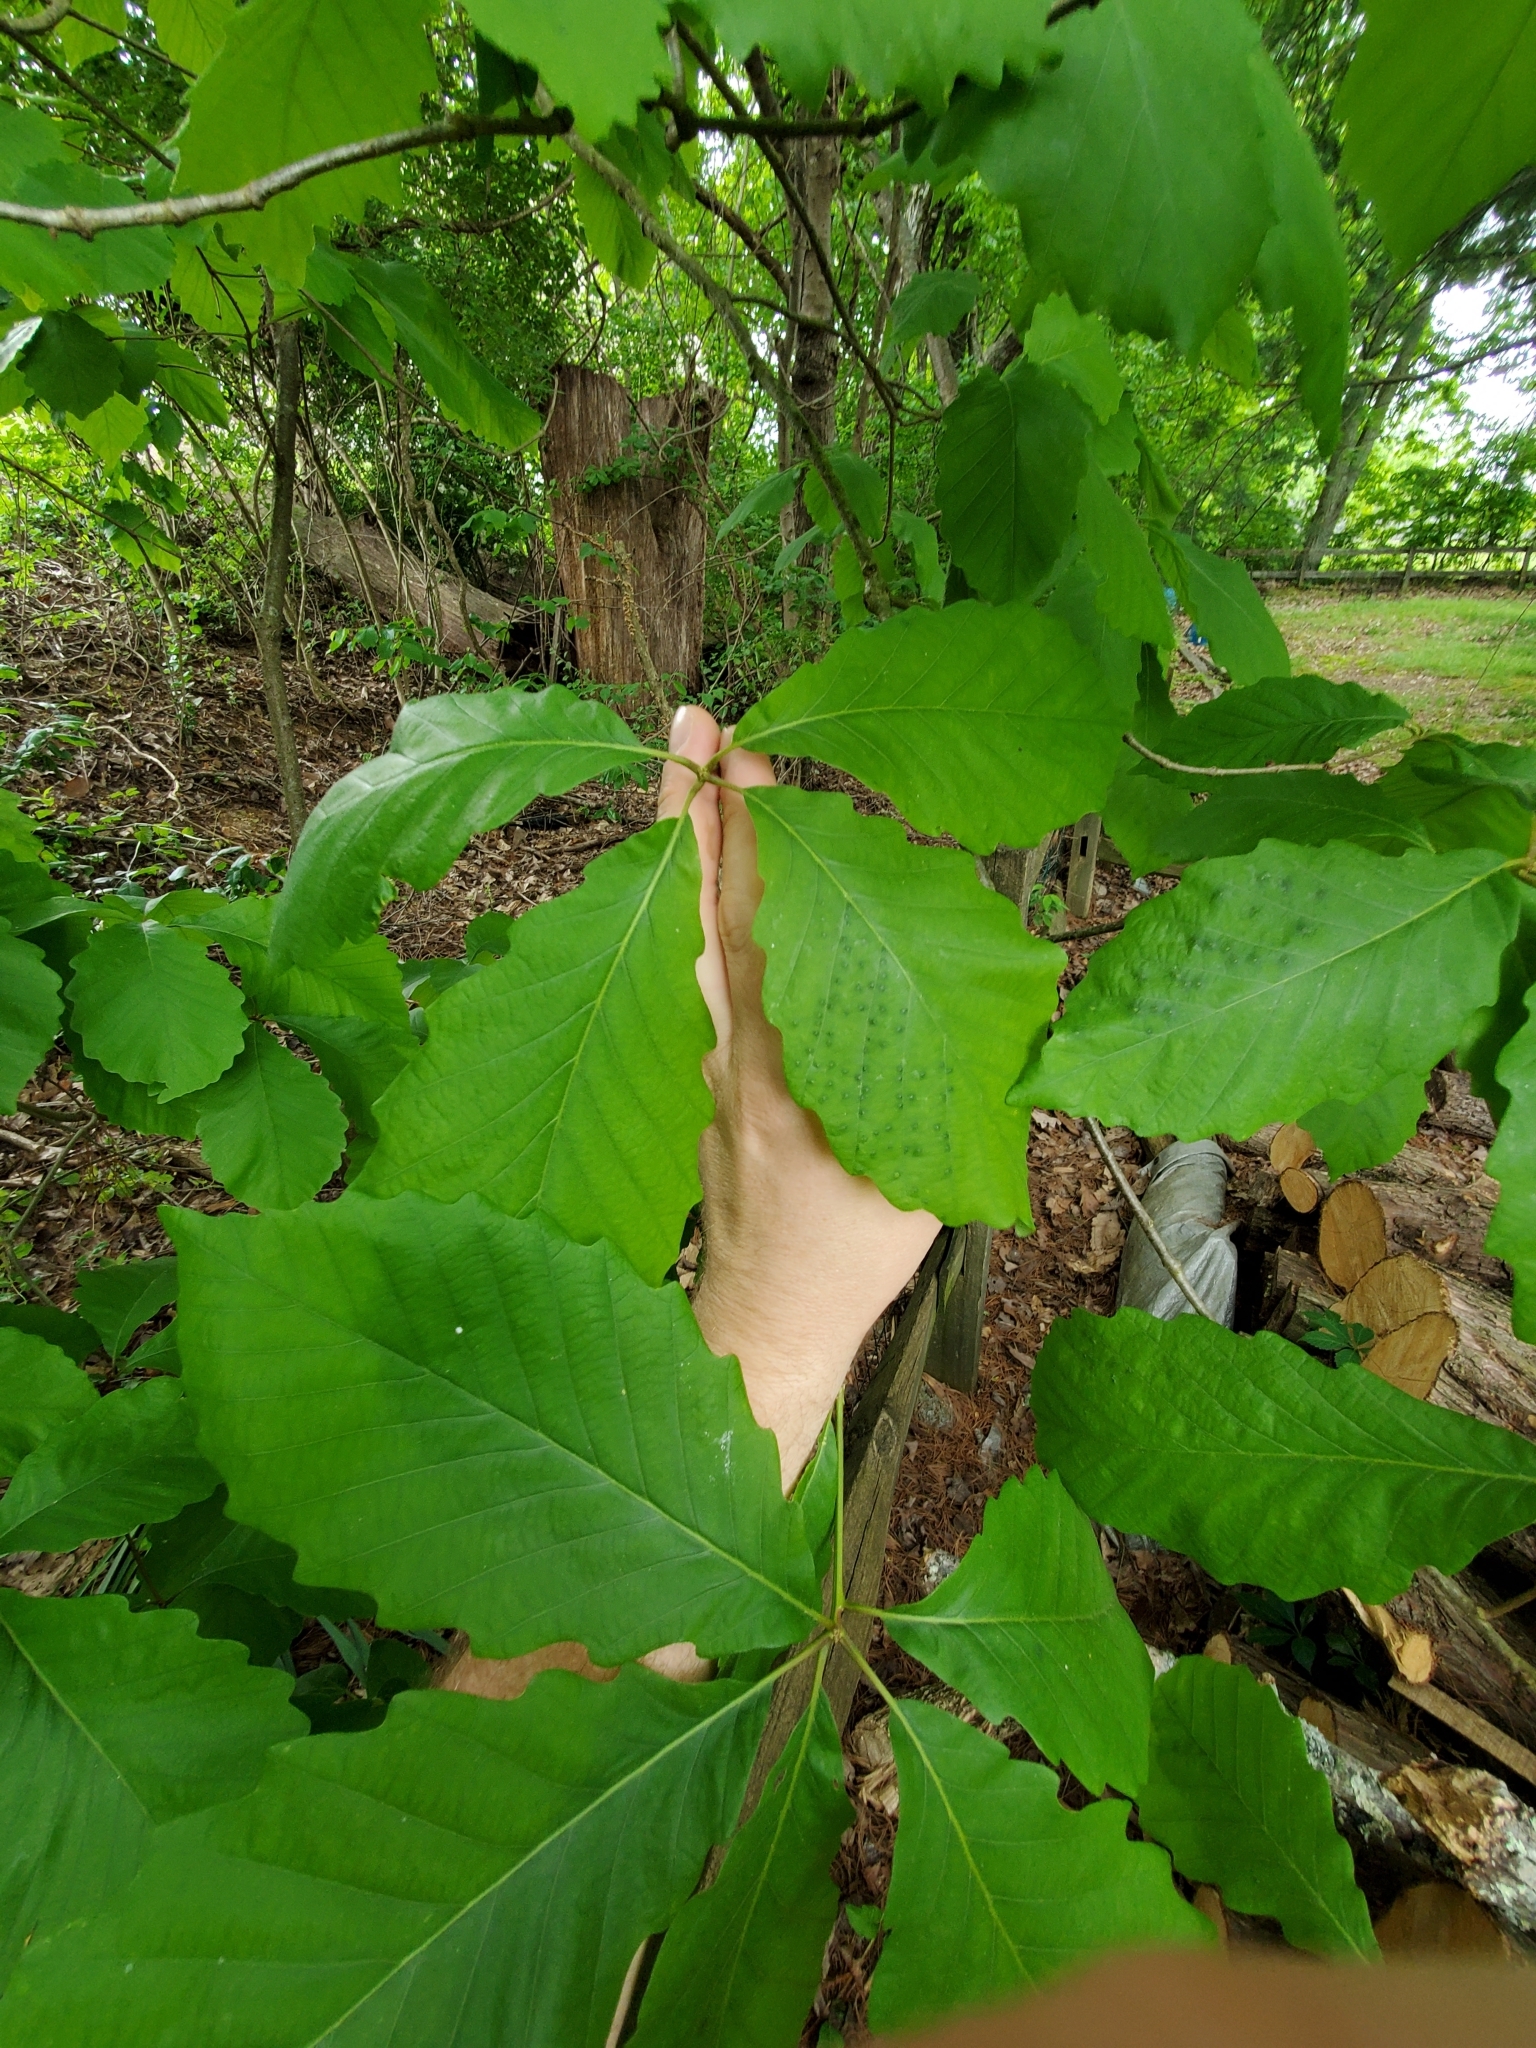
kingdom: Animalia
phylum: Arthropoda
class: Insecta
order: Hymenoptera
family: Cynipidae
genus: Neuroterus
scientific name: Neuroterus
